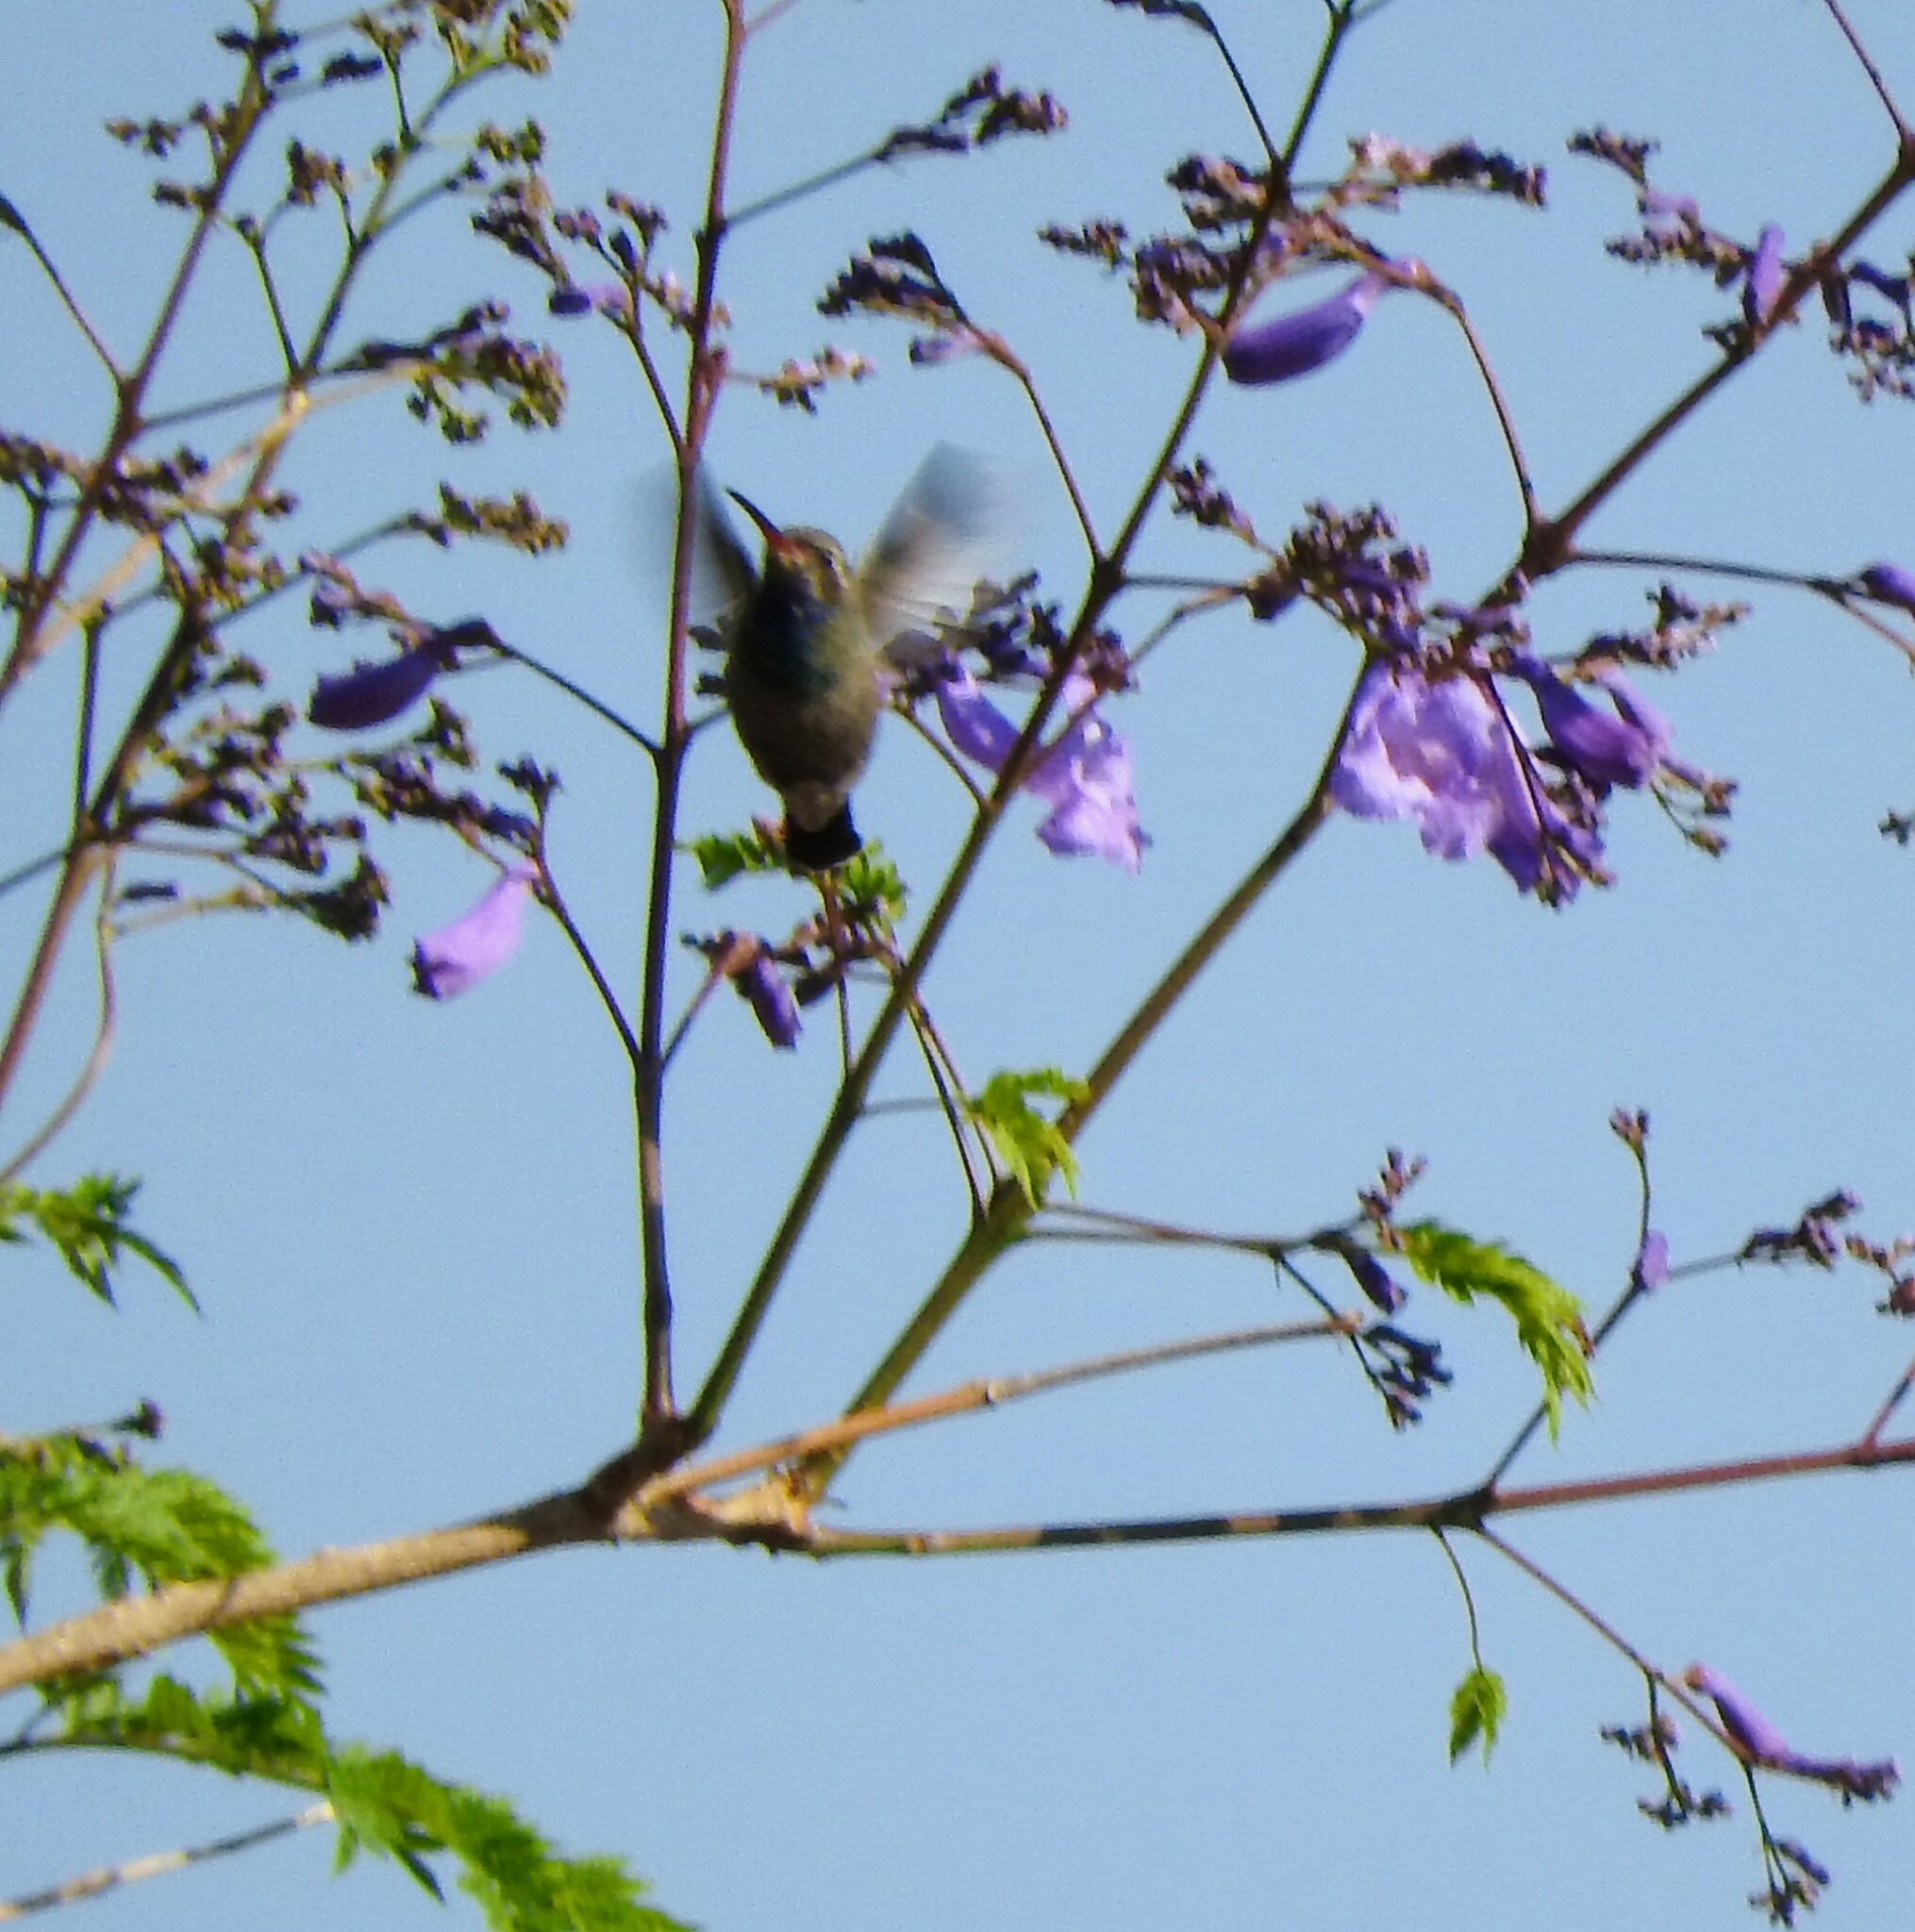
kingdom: Animalia
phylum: Chordata
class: Aves
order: Apodiformes
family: Trochilidae
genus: Cynanthus
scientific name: Cynanthus latirostris
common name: Broad-billed hummingbird
